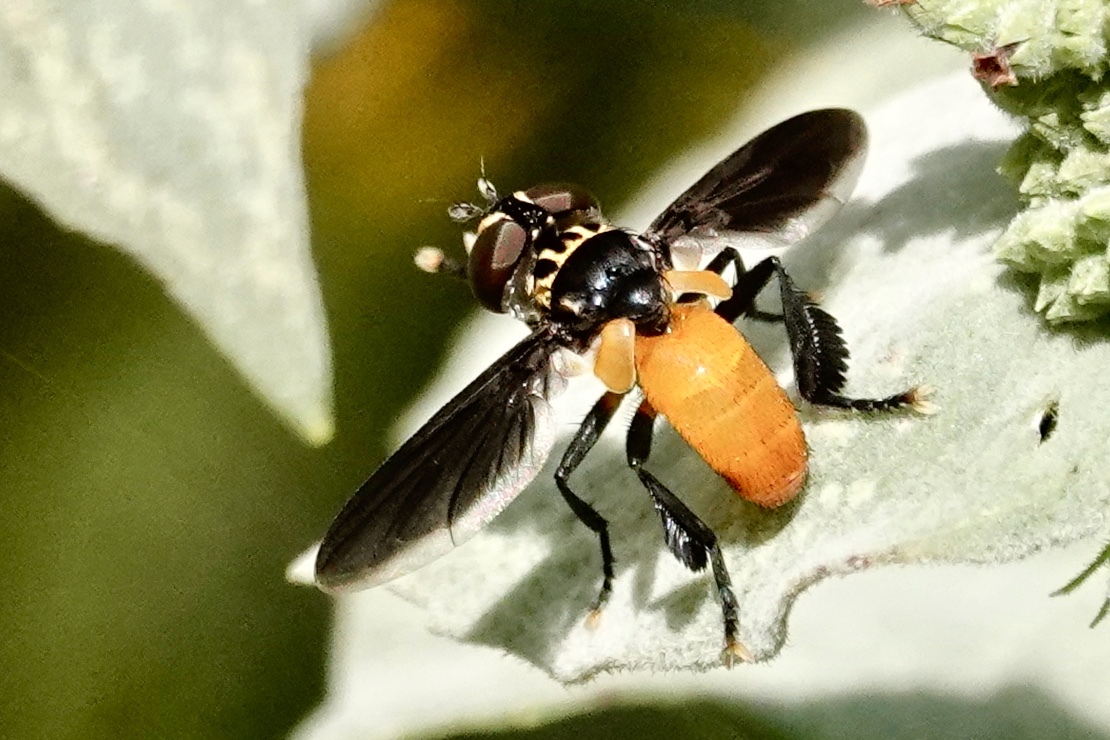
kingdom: Animalia
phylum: Arthropoda
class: Insecta
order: Diptera
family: Tachinidae
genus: Trichopoda
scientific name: Trichopoda pennipes
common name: Tachinid fly
